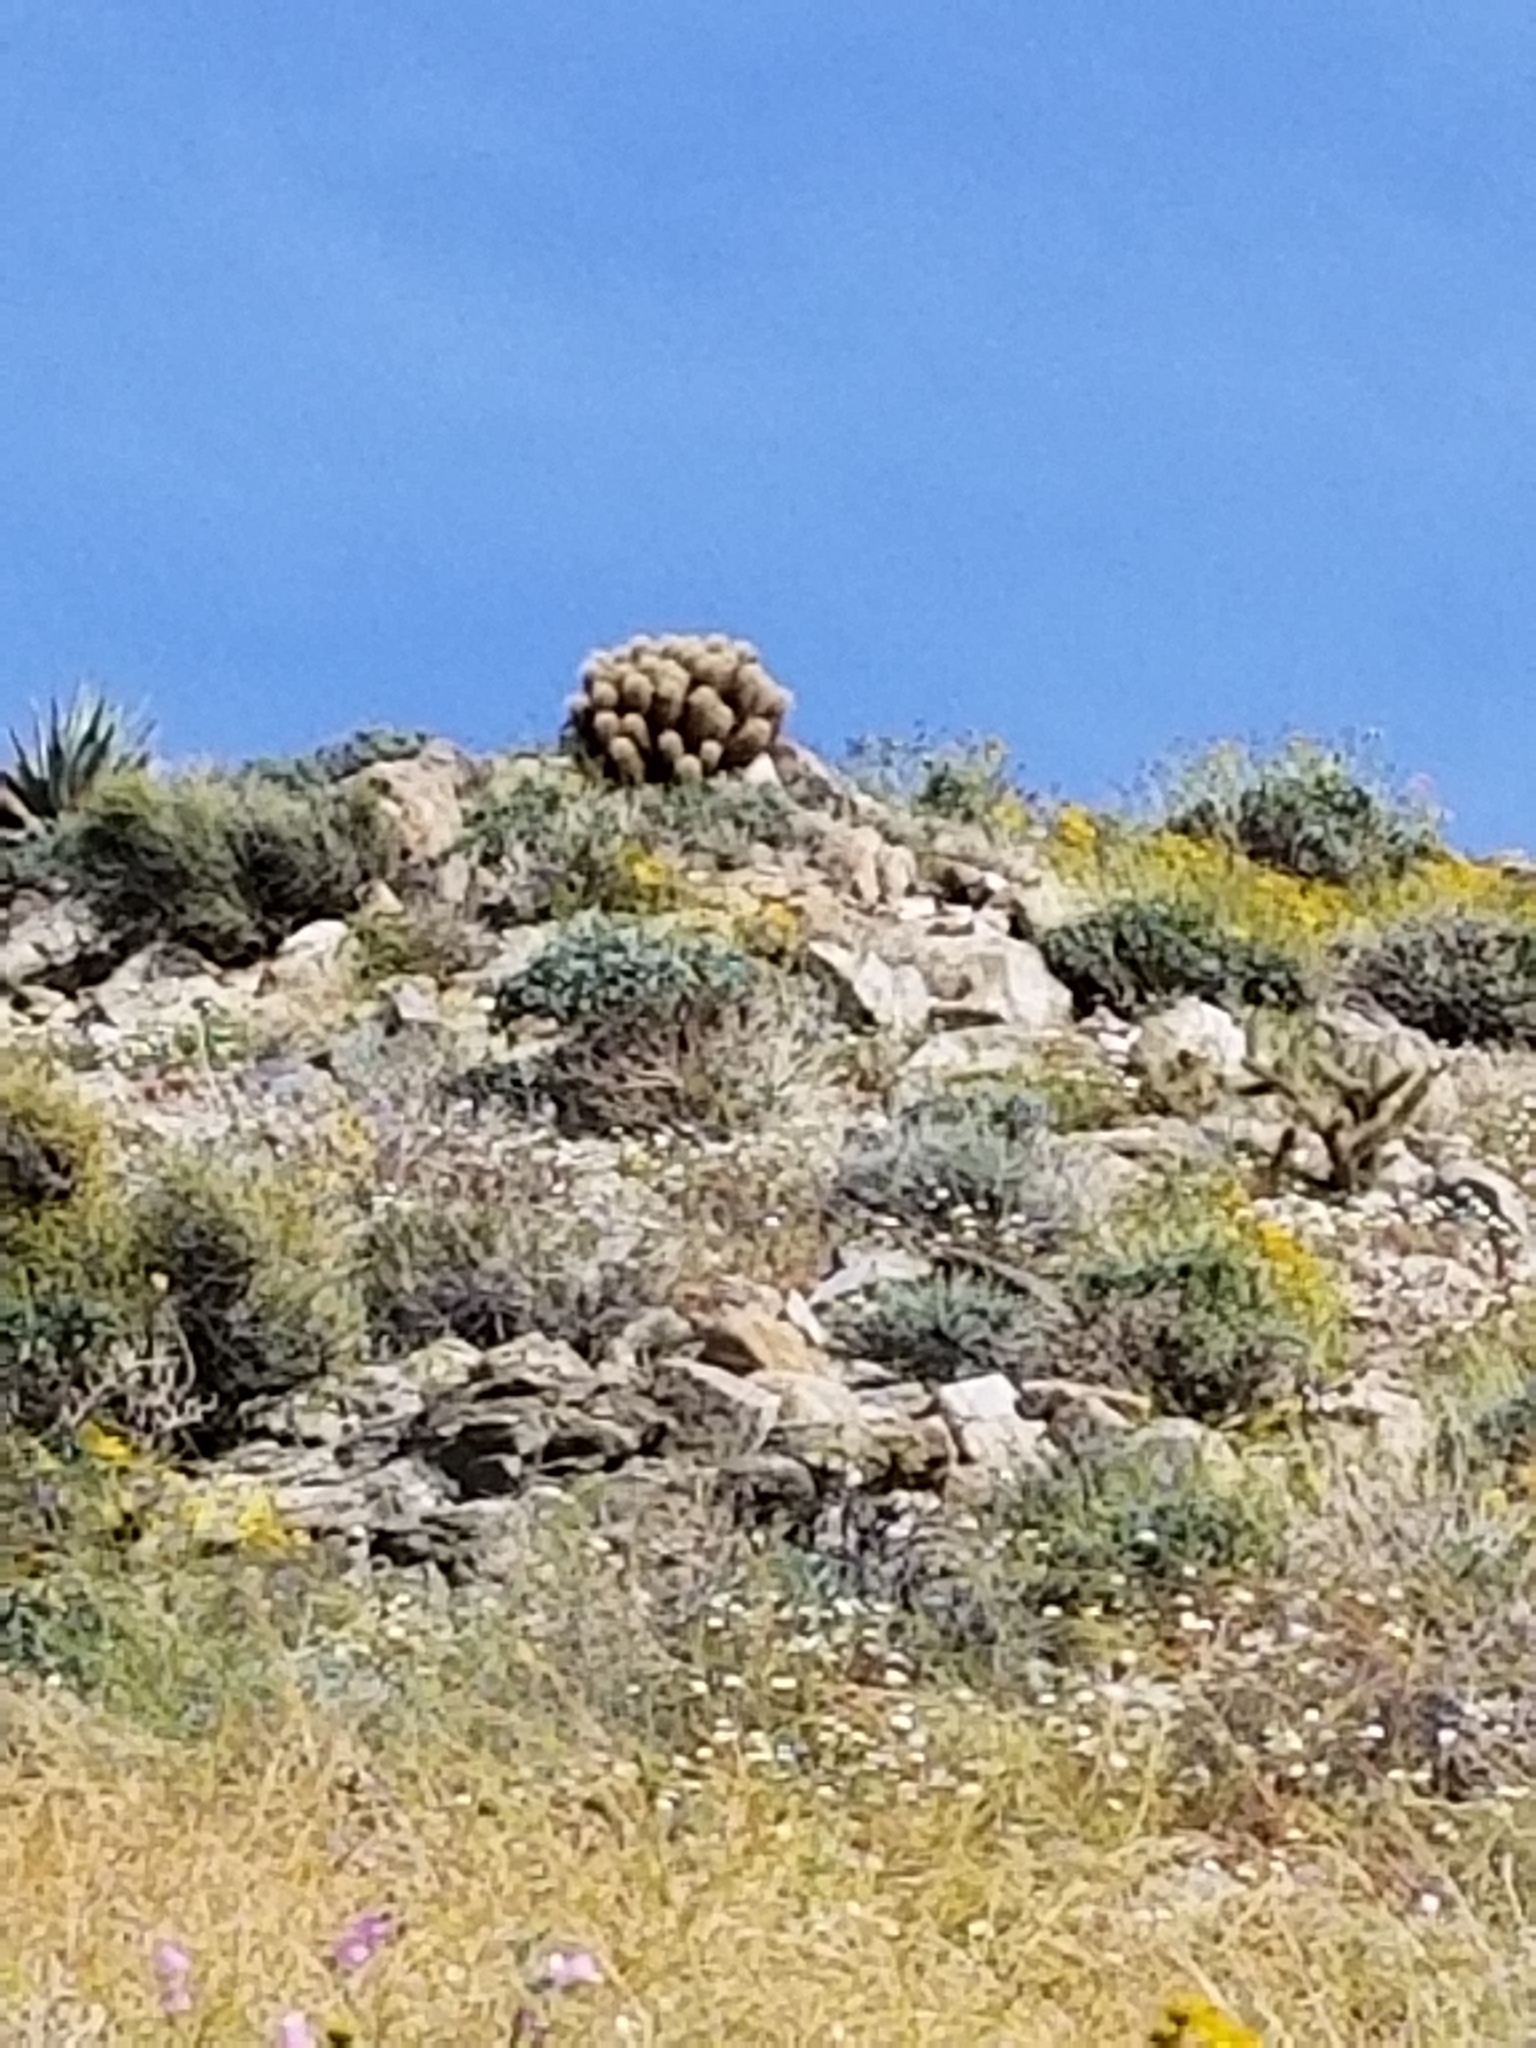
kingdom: Plantae
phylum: Tracheophyta
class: Magnoliopsida
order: Caryophyllales
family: Cactaceae
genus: Echinocereus
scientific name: Echinocereus engelmannii
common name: Engelmann's hedgehog cactus
